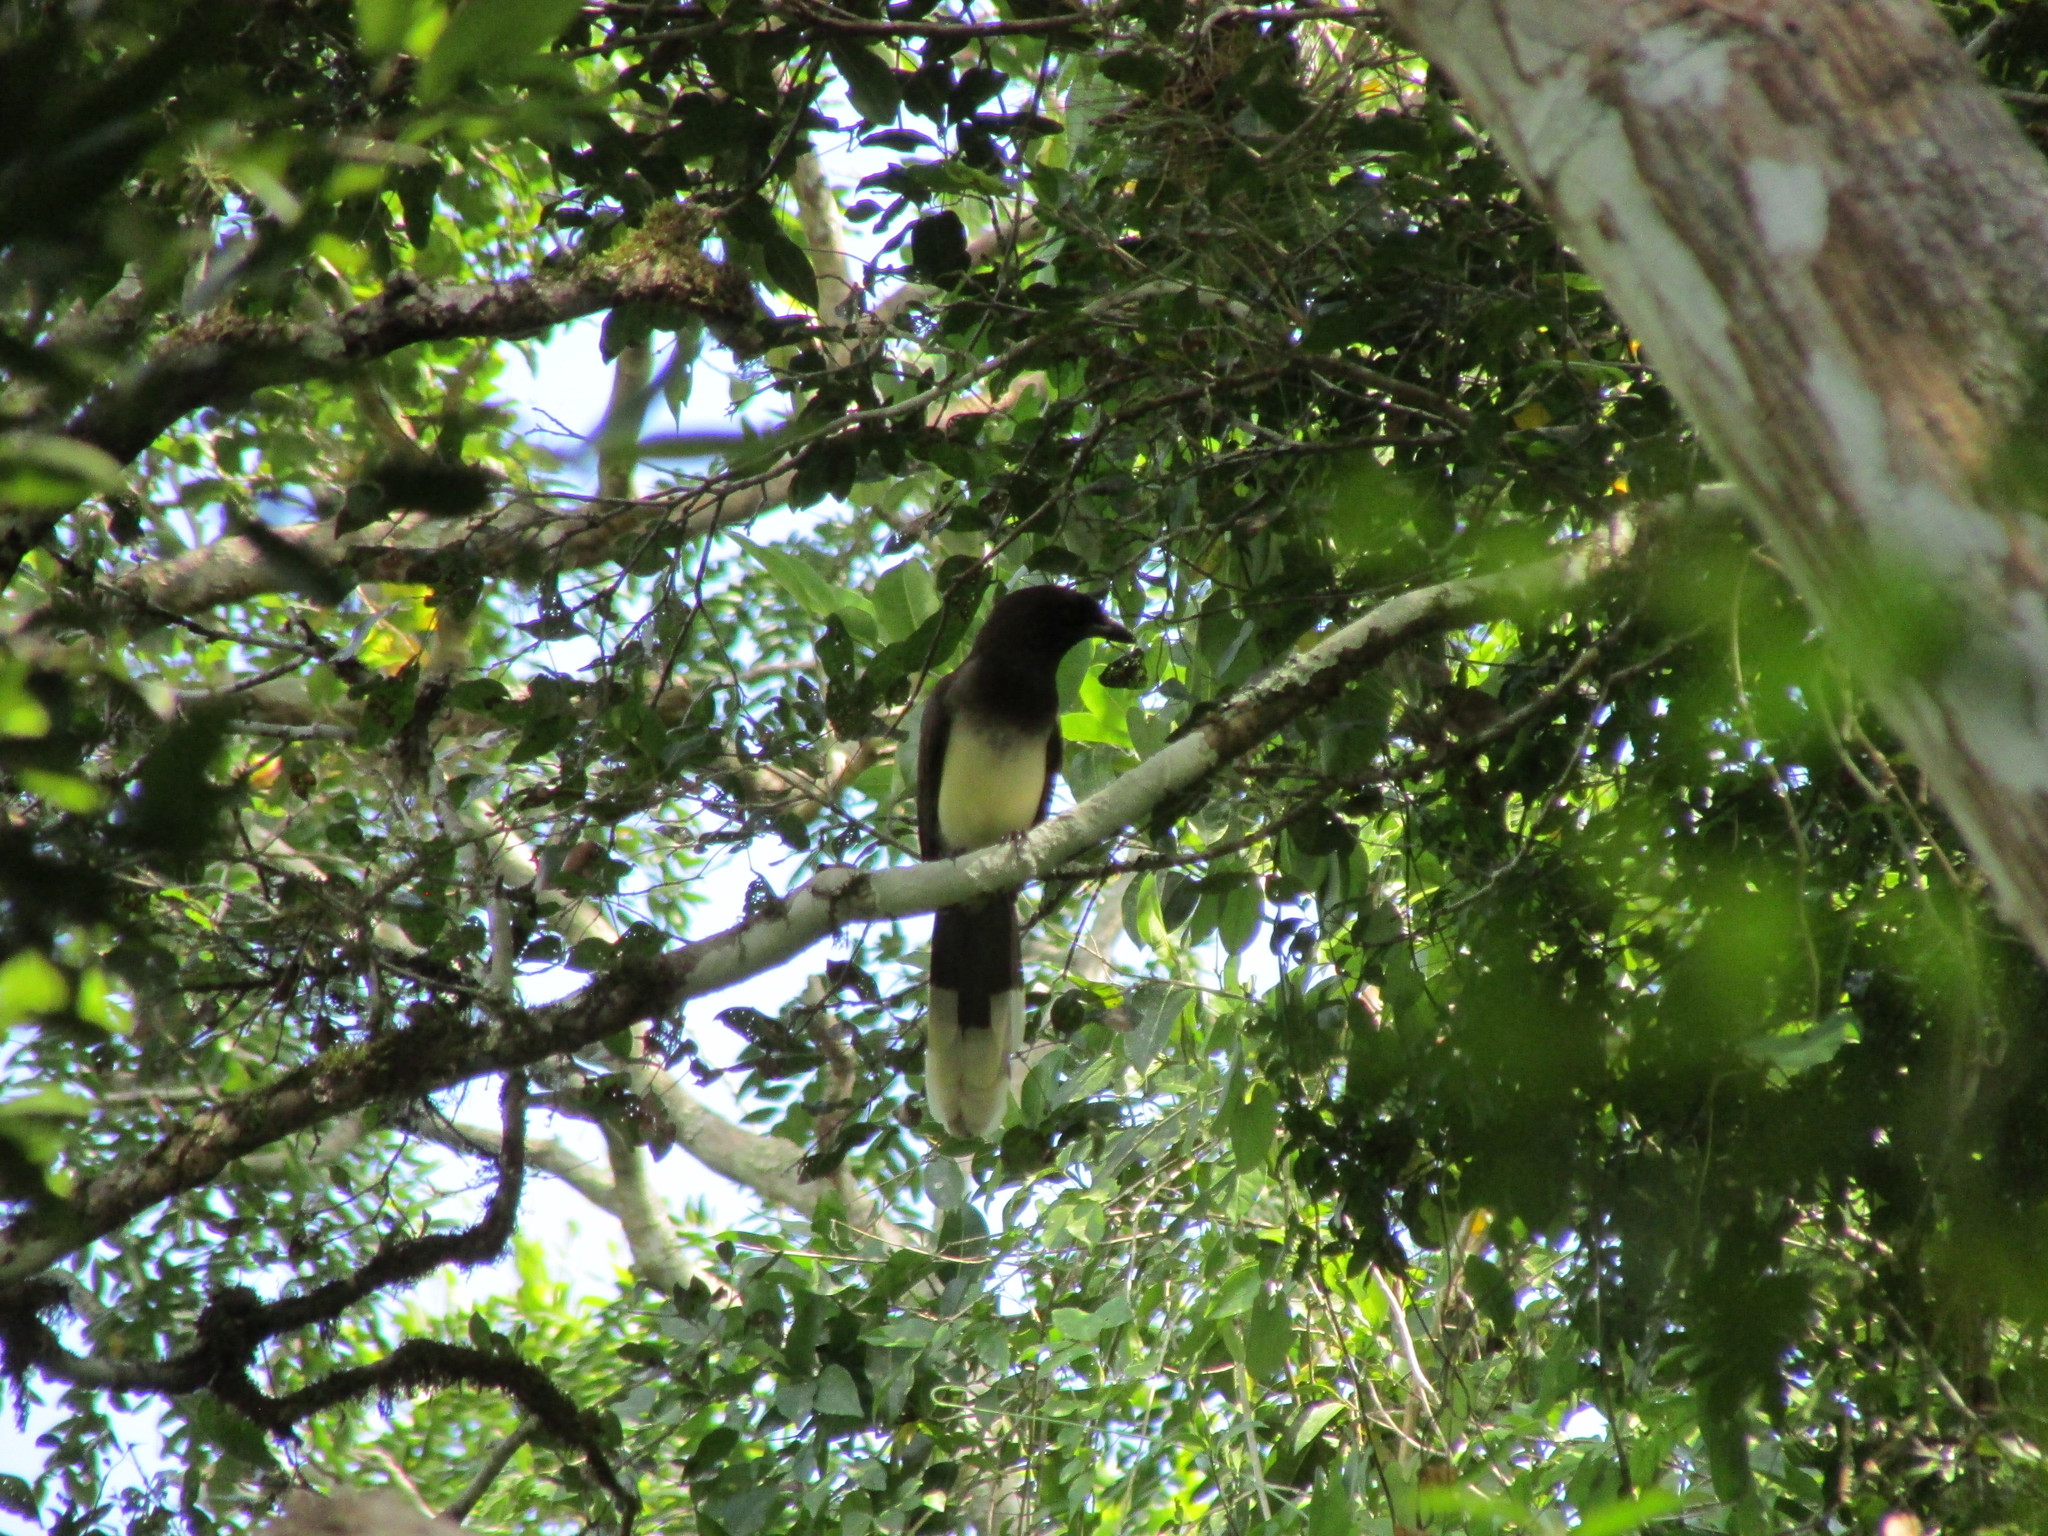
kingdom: Animalia
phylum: Chordata
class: Aves
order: Passeriformes
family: Corvidae
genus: Psilorhinus
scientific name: Psilorhinus morio
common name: Brown jay
